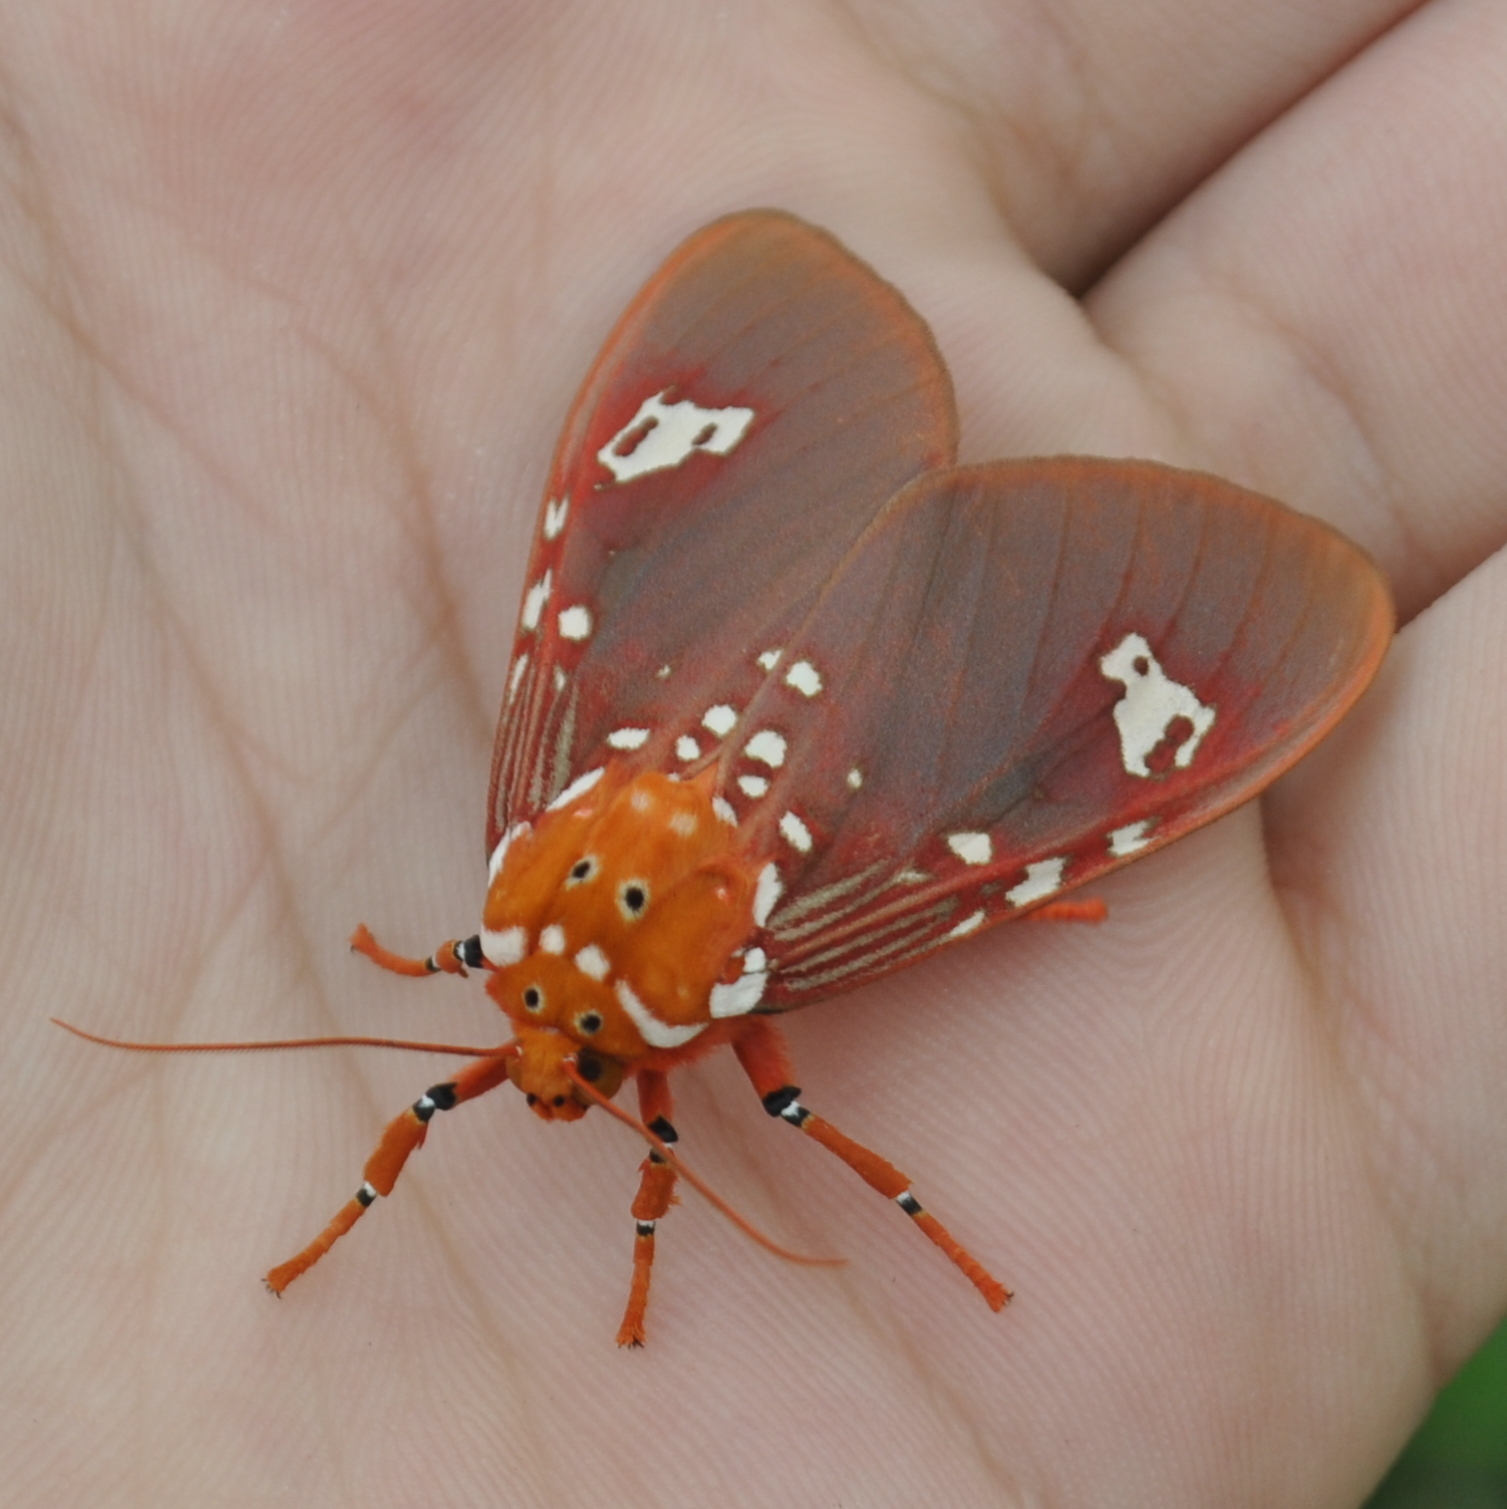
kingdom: Animalia
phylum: Arthropoda
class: Insecta
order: Lepidoptera
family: Erebidae
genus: Rhodorhipha
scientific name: Rhodorhipha
